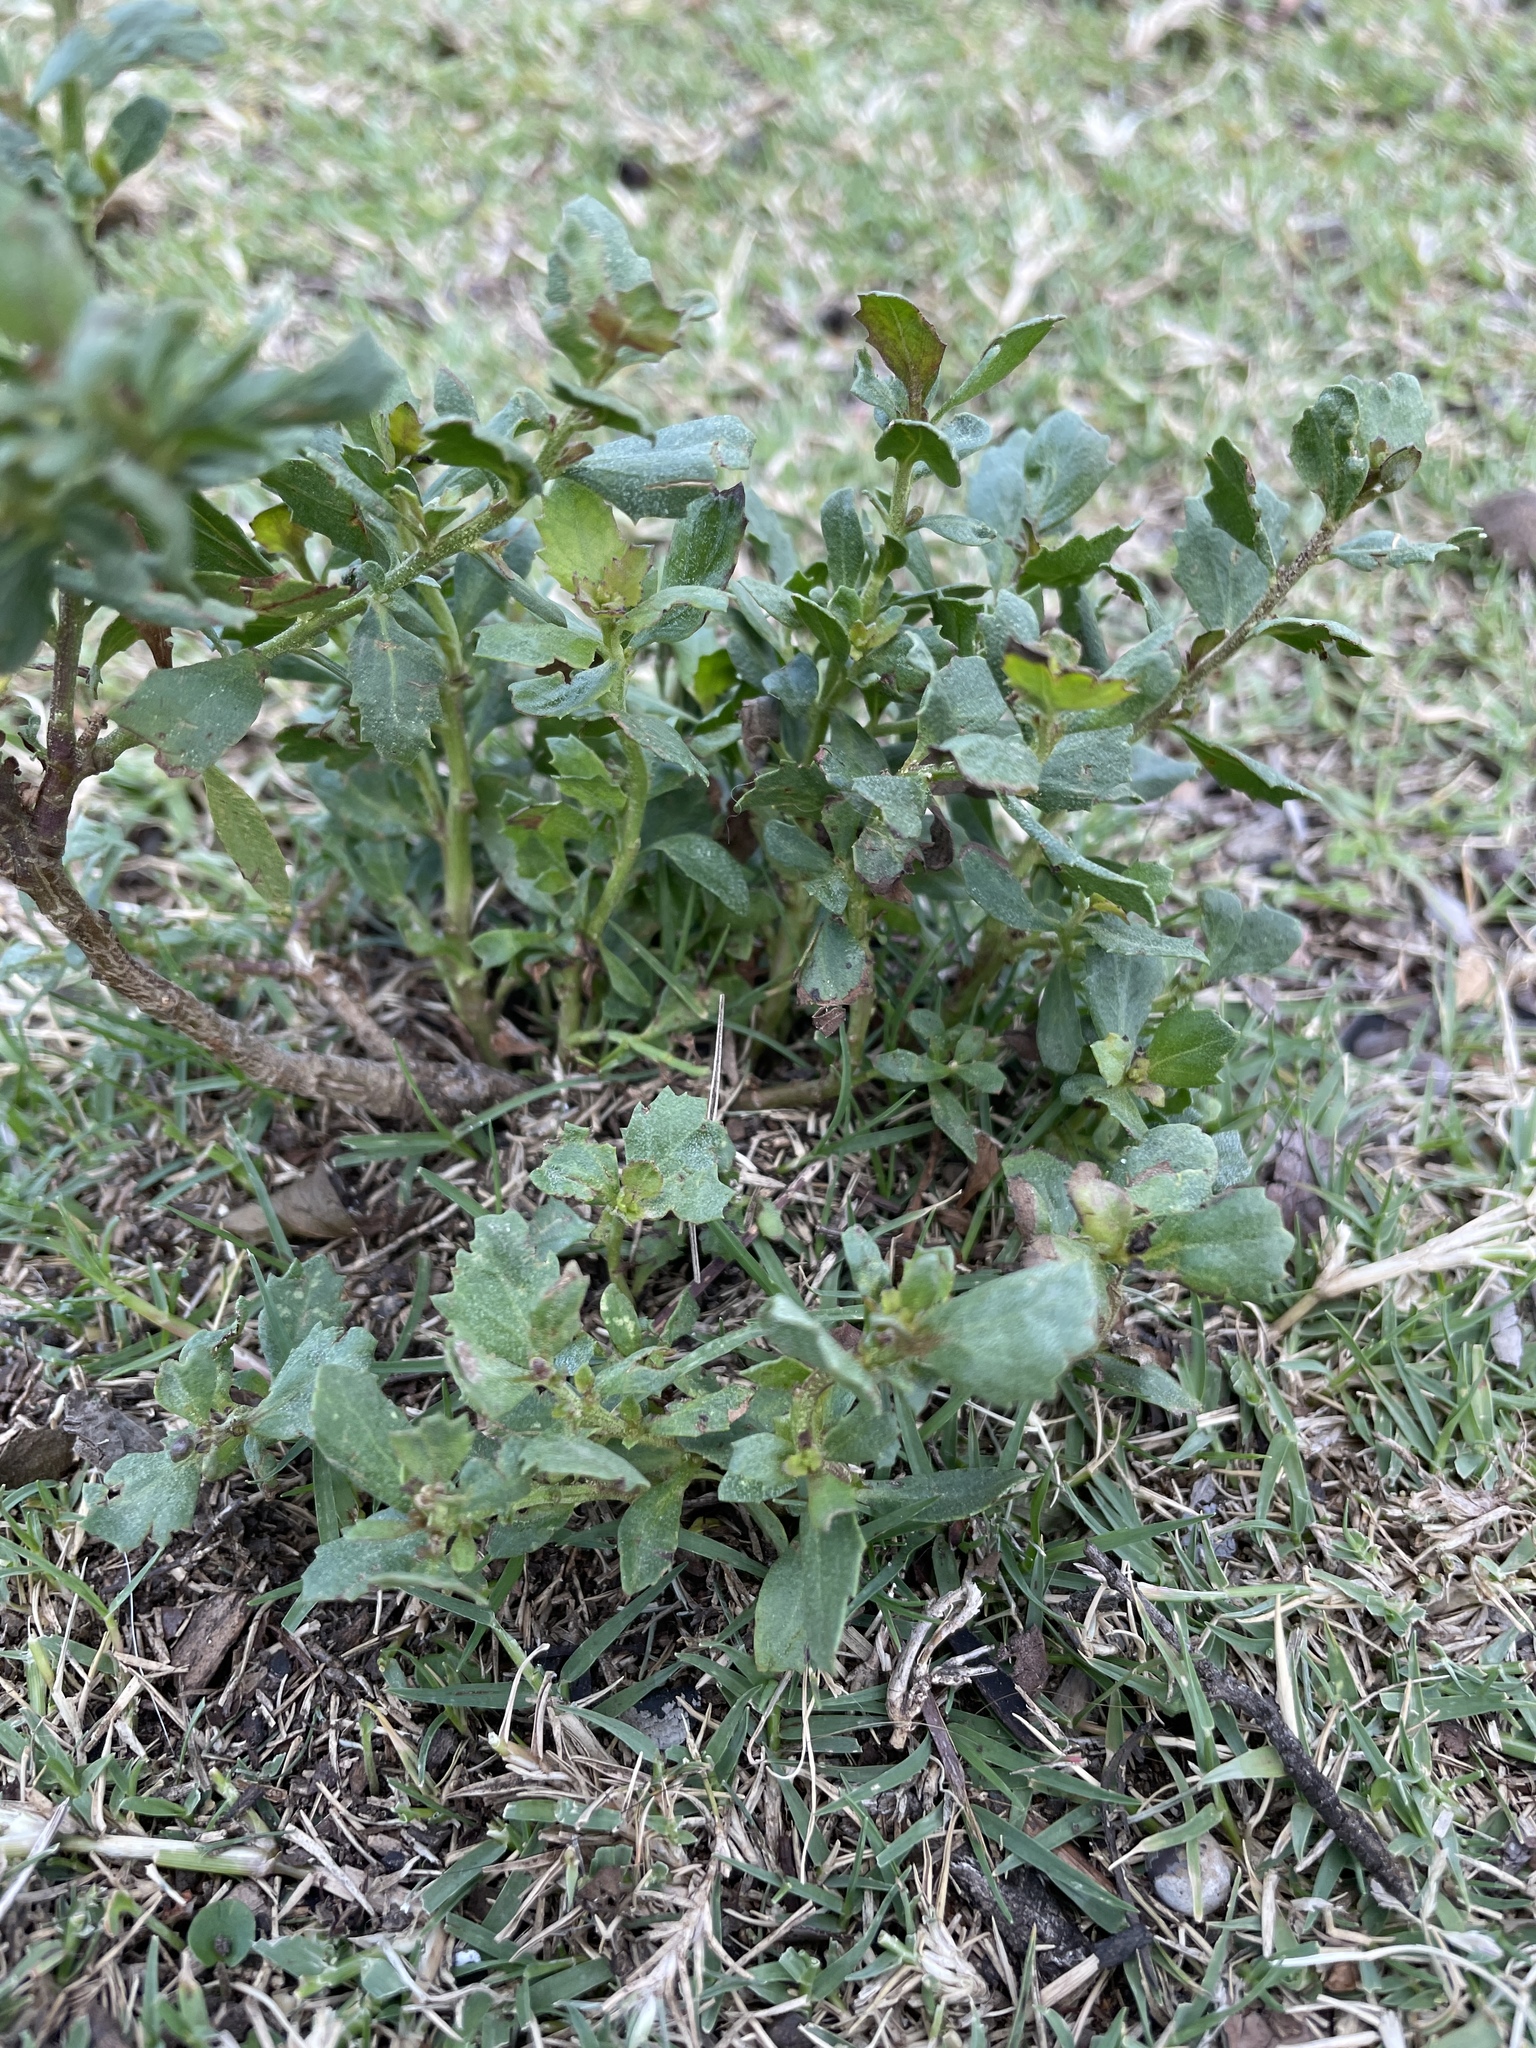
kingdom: Plantae
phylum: Tracheophyta
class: Magnoliopsida
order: Asterales
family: Asteraceae
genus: Baccharis
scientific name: Baccharis pilularis
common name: Coyotebrush
